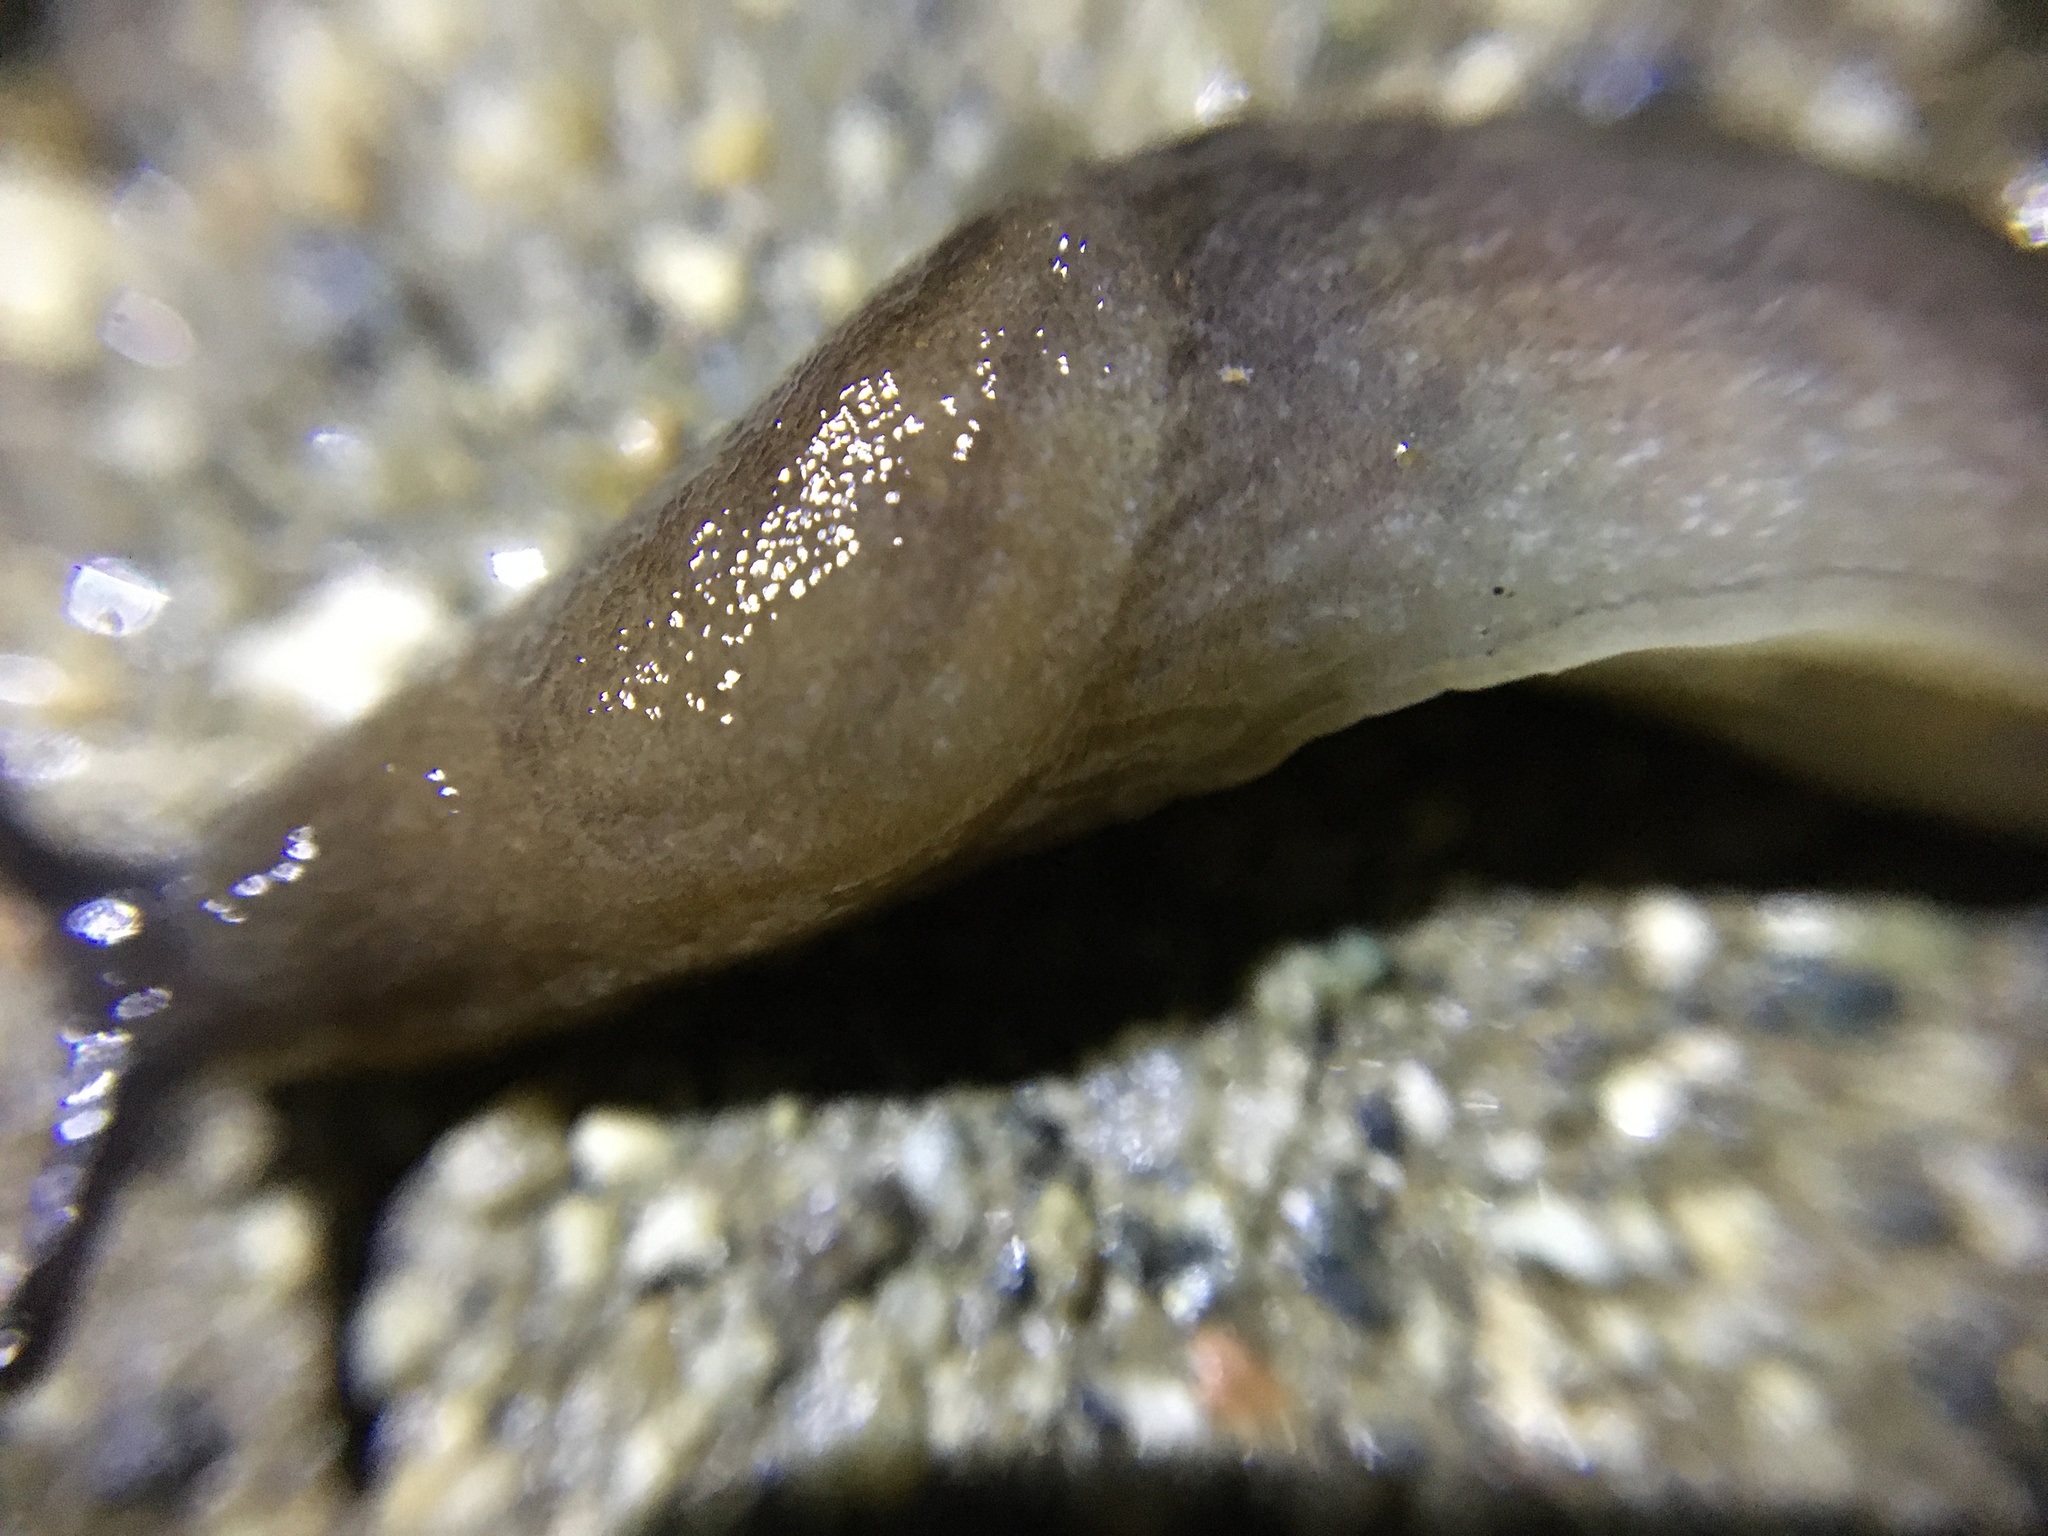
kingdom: Animalia
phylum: Mollusca
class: Gastropoda
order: Stylommatophora
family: Milacidae
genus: Milax
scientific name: Milax gagates
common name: Greenhouse slug
